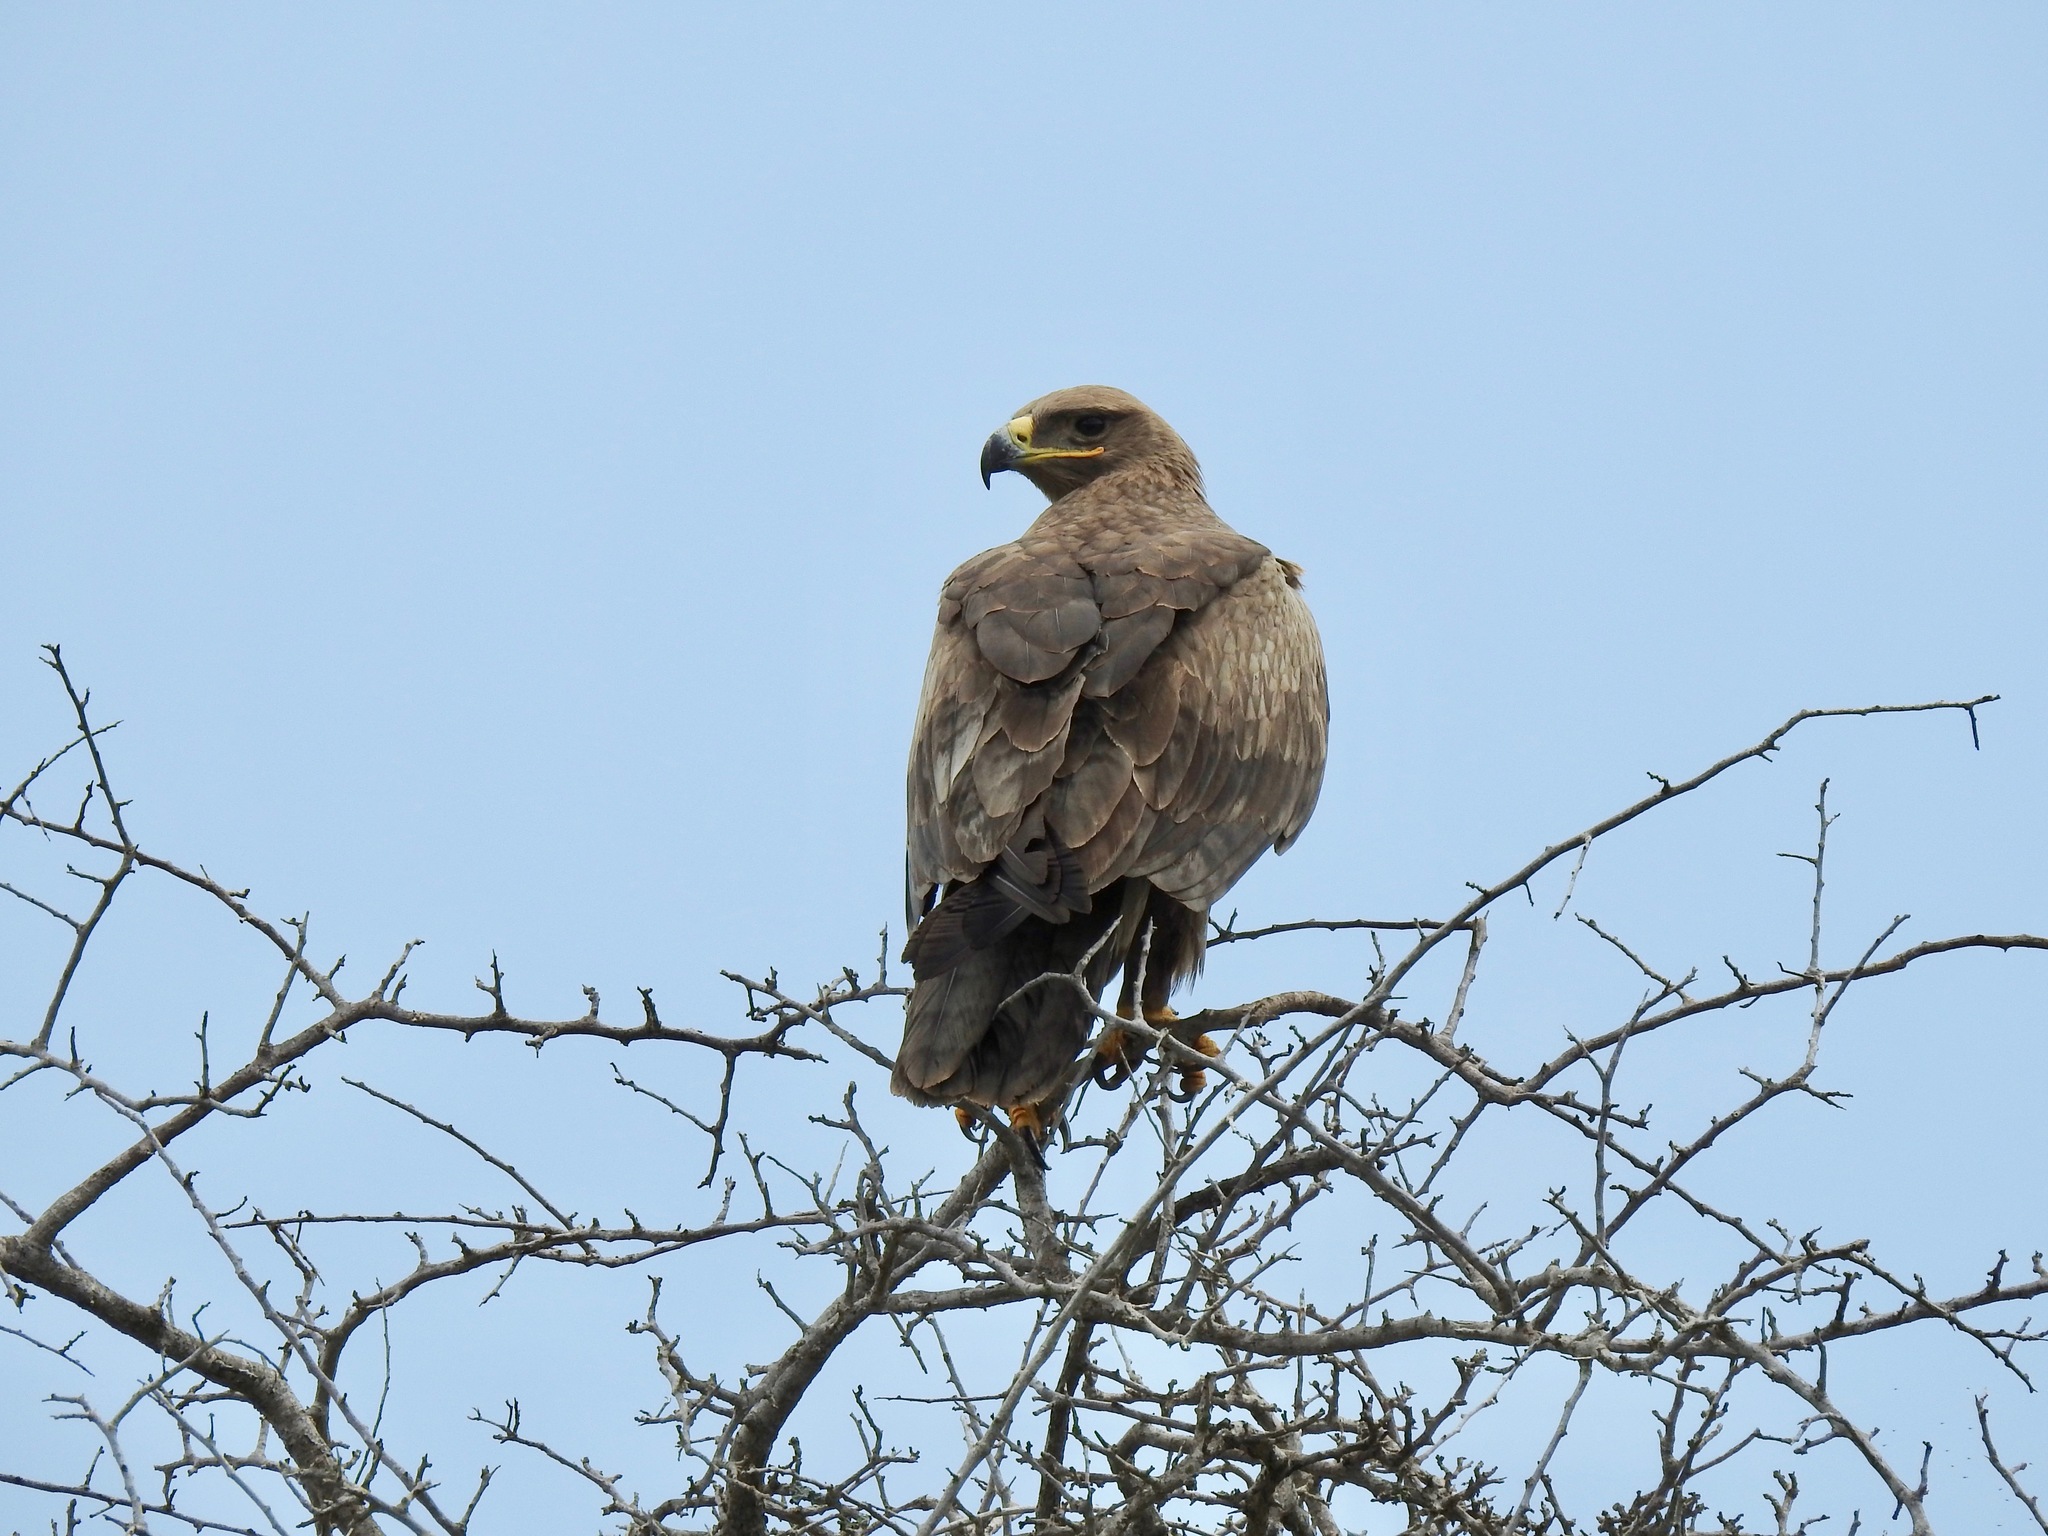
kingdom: Animalia
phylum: Chordata
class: Aves
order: Accipitriformes
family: Accipitridae
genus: Aquila
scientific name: Aquila nipalensis
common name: Steppe eagle
